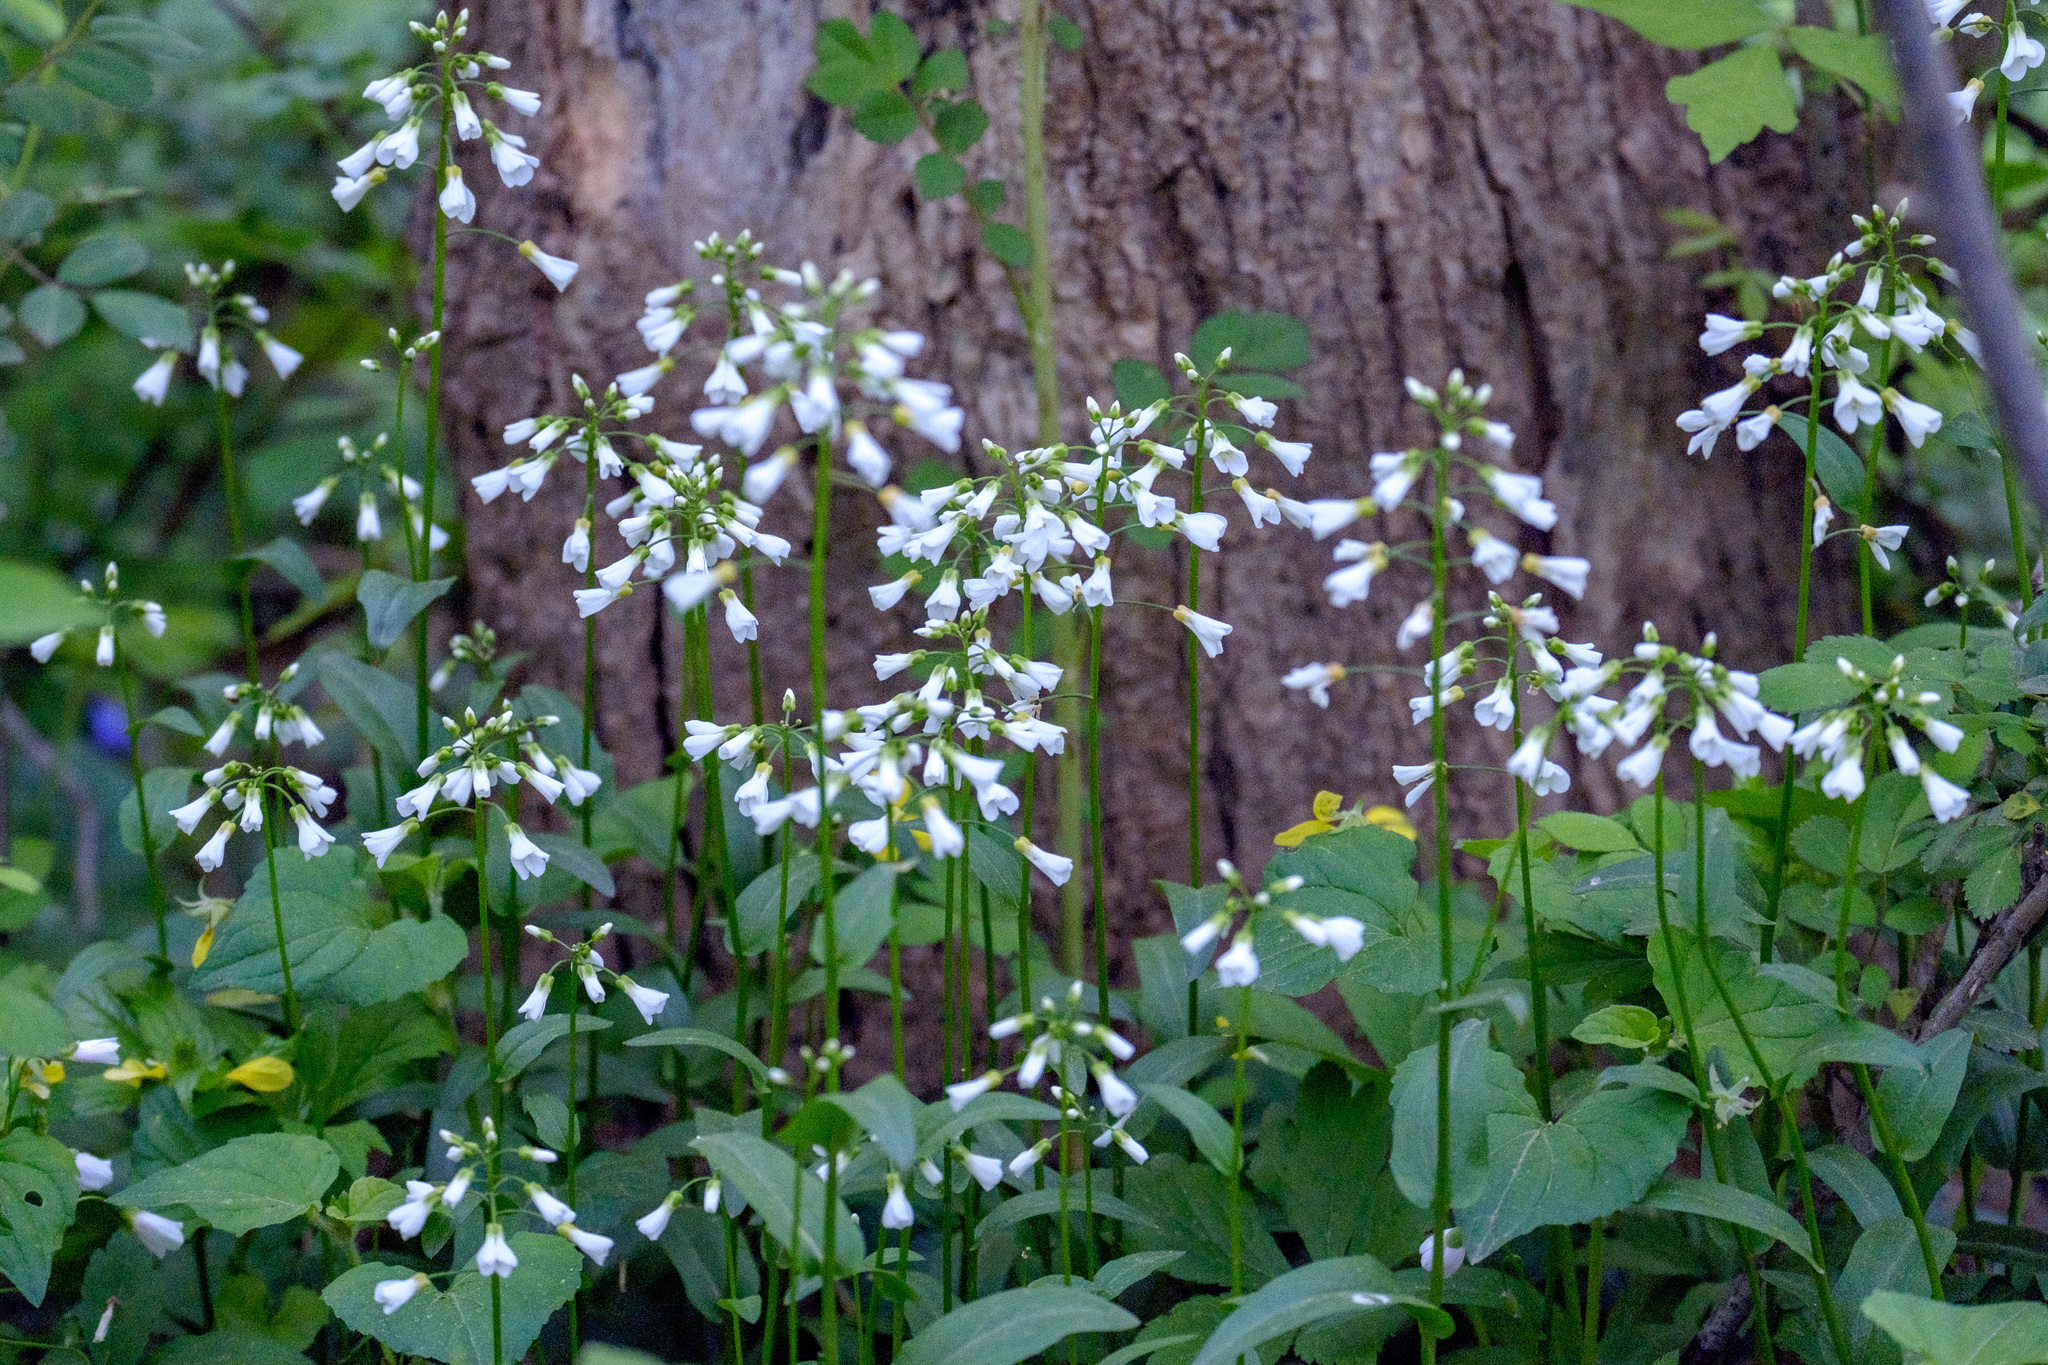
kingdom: Plantae
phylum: Tracheophyta
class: Magnoliopsida
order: Brassicales
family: Brassicaceae
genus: Cardamine
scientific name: Cardamine bulbosa
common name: Spring cress
